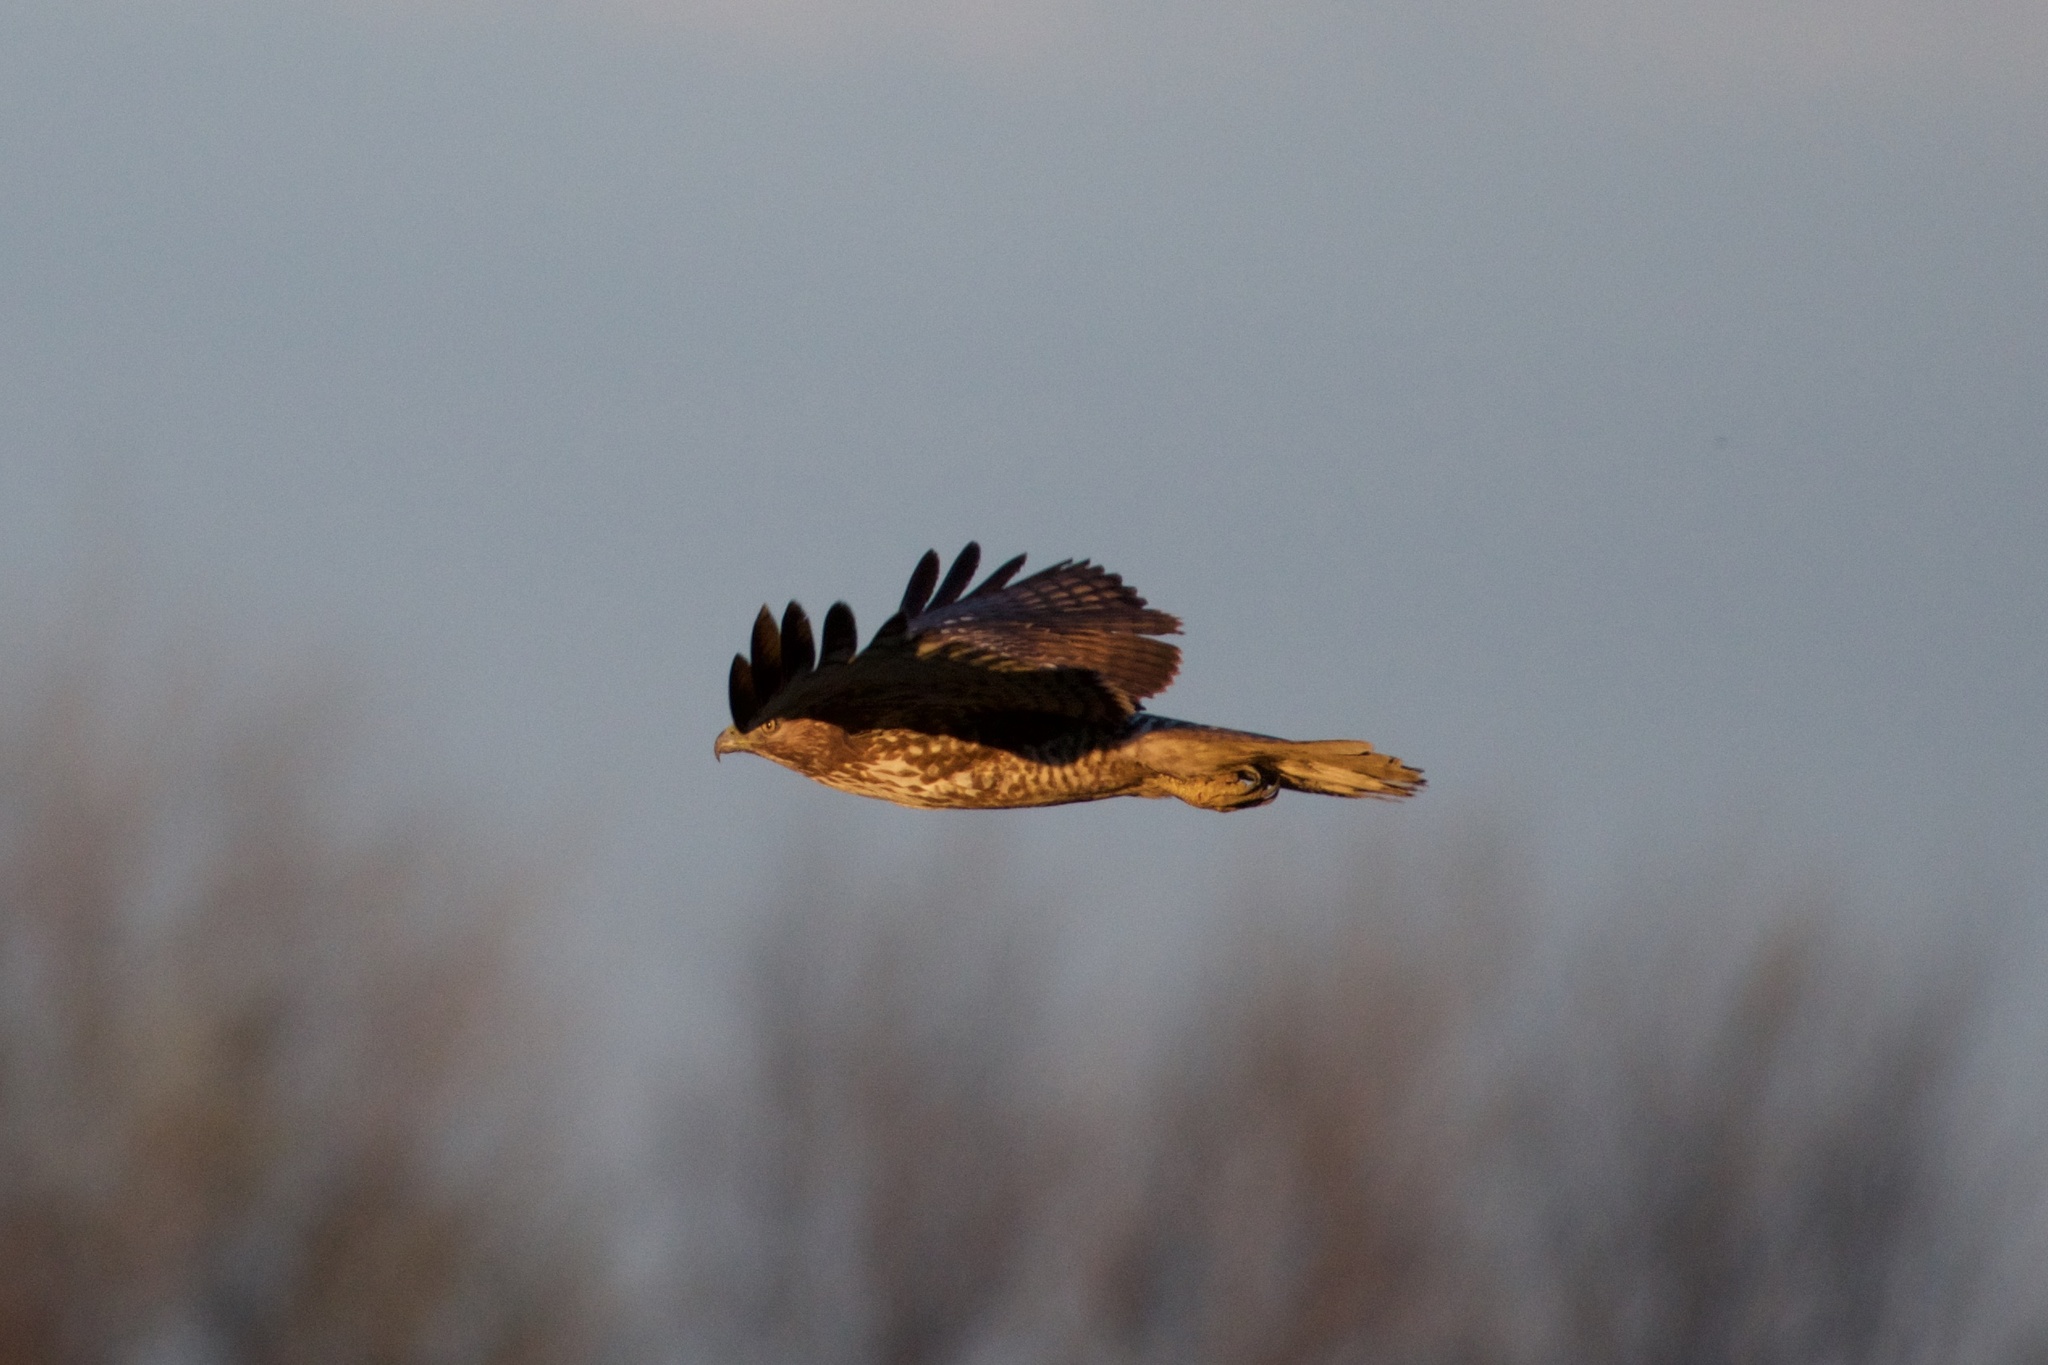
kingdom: Animalia
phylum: Chordata
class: Aves
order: Accipitriformes
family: Accipitridae
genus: Buteo
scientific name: Buteo jamaicensis
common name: Red-tailed hawk
